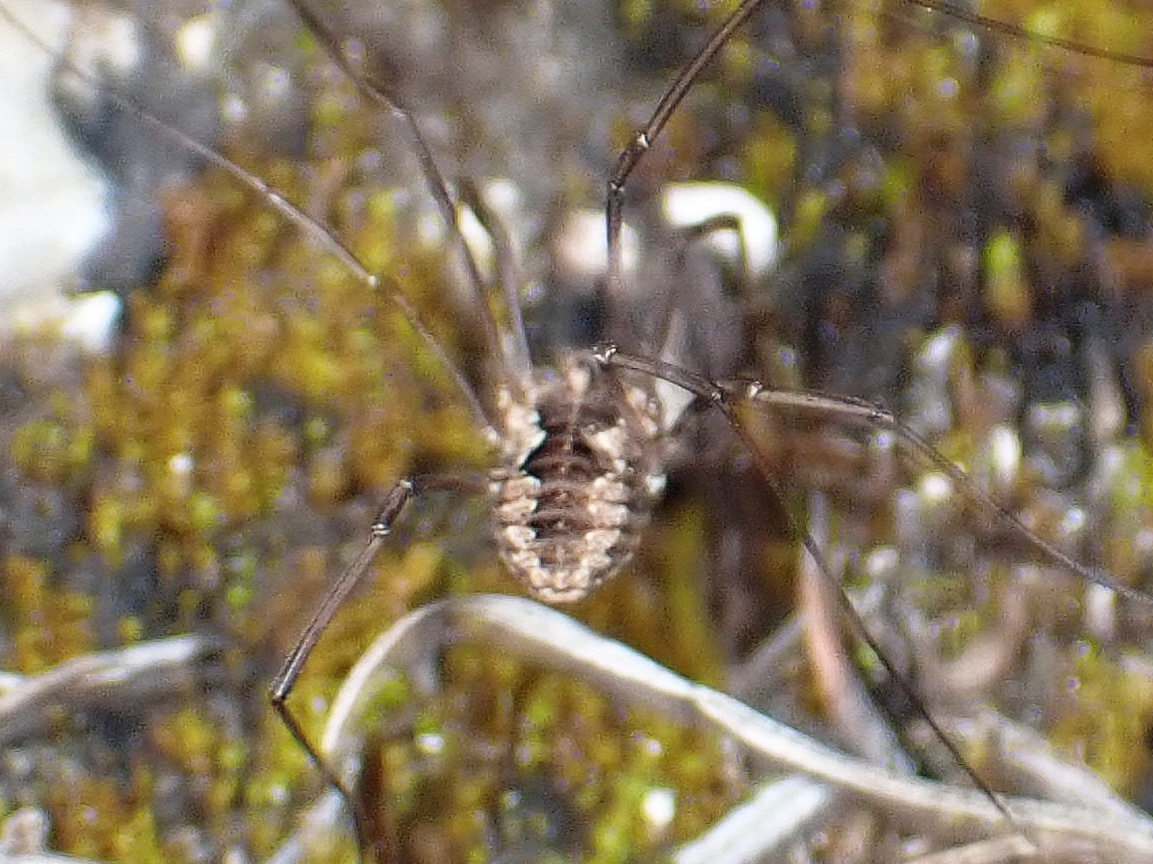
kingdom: Animalia
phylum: Arthropoda
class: Arachnida
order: Opiliones
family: Phalangiidae
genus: Phalangium
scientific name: Phalangium opilio
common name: Daddy longleg
